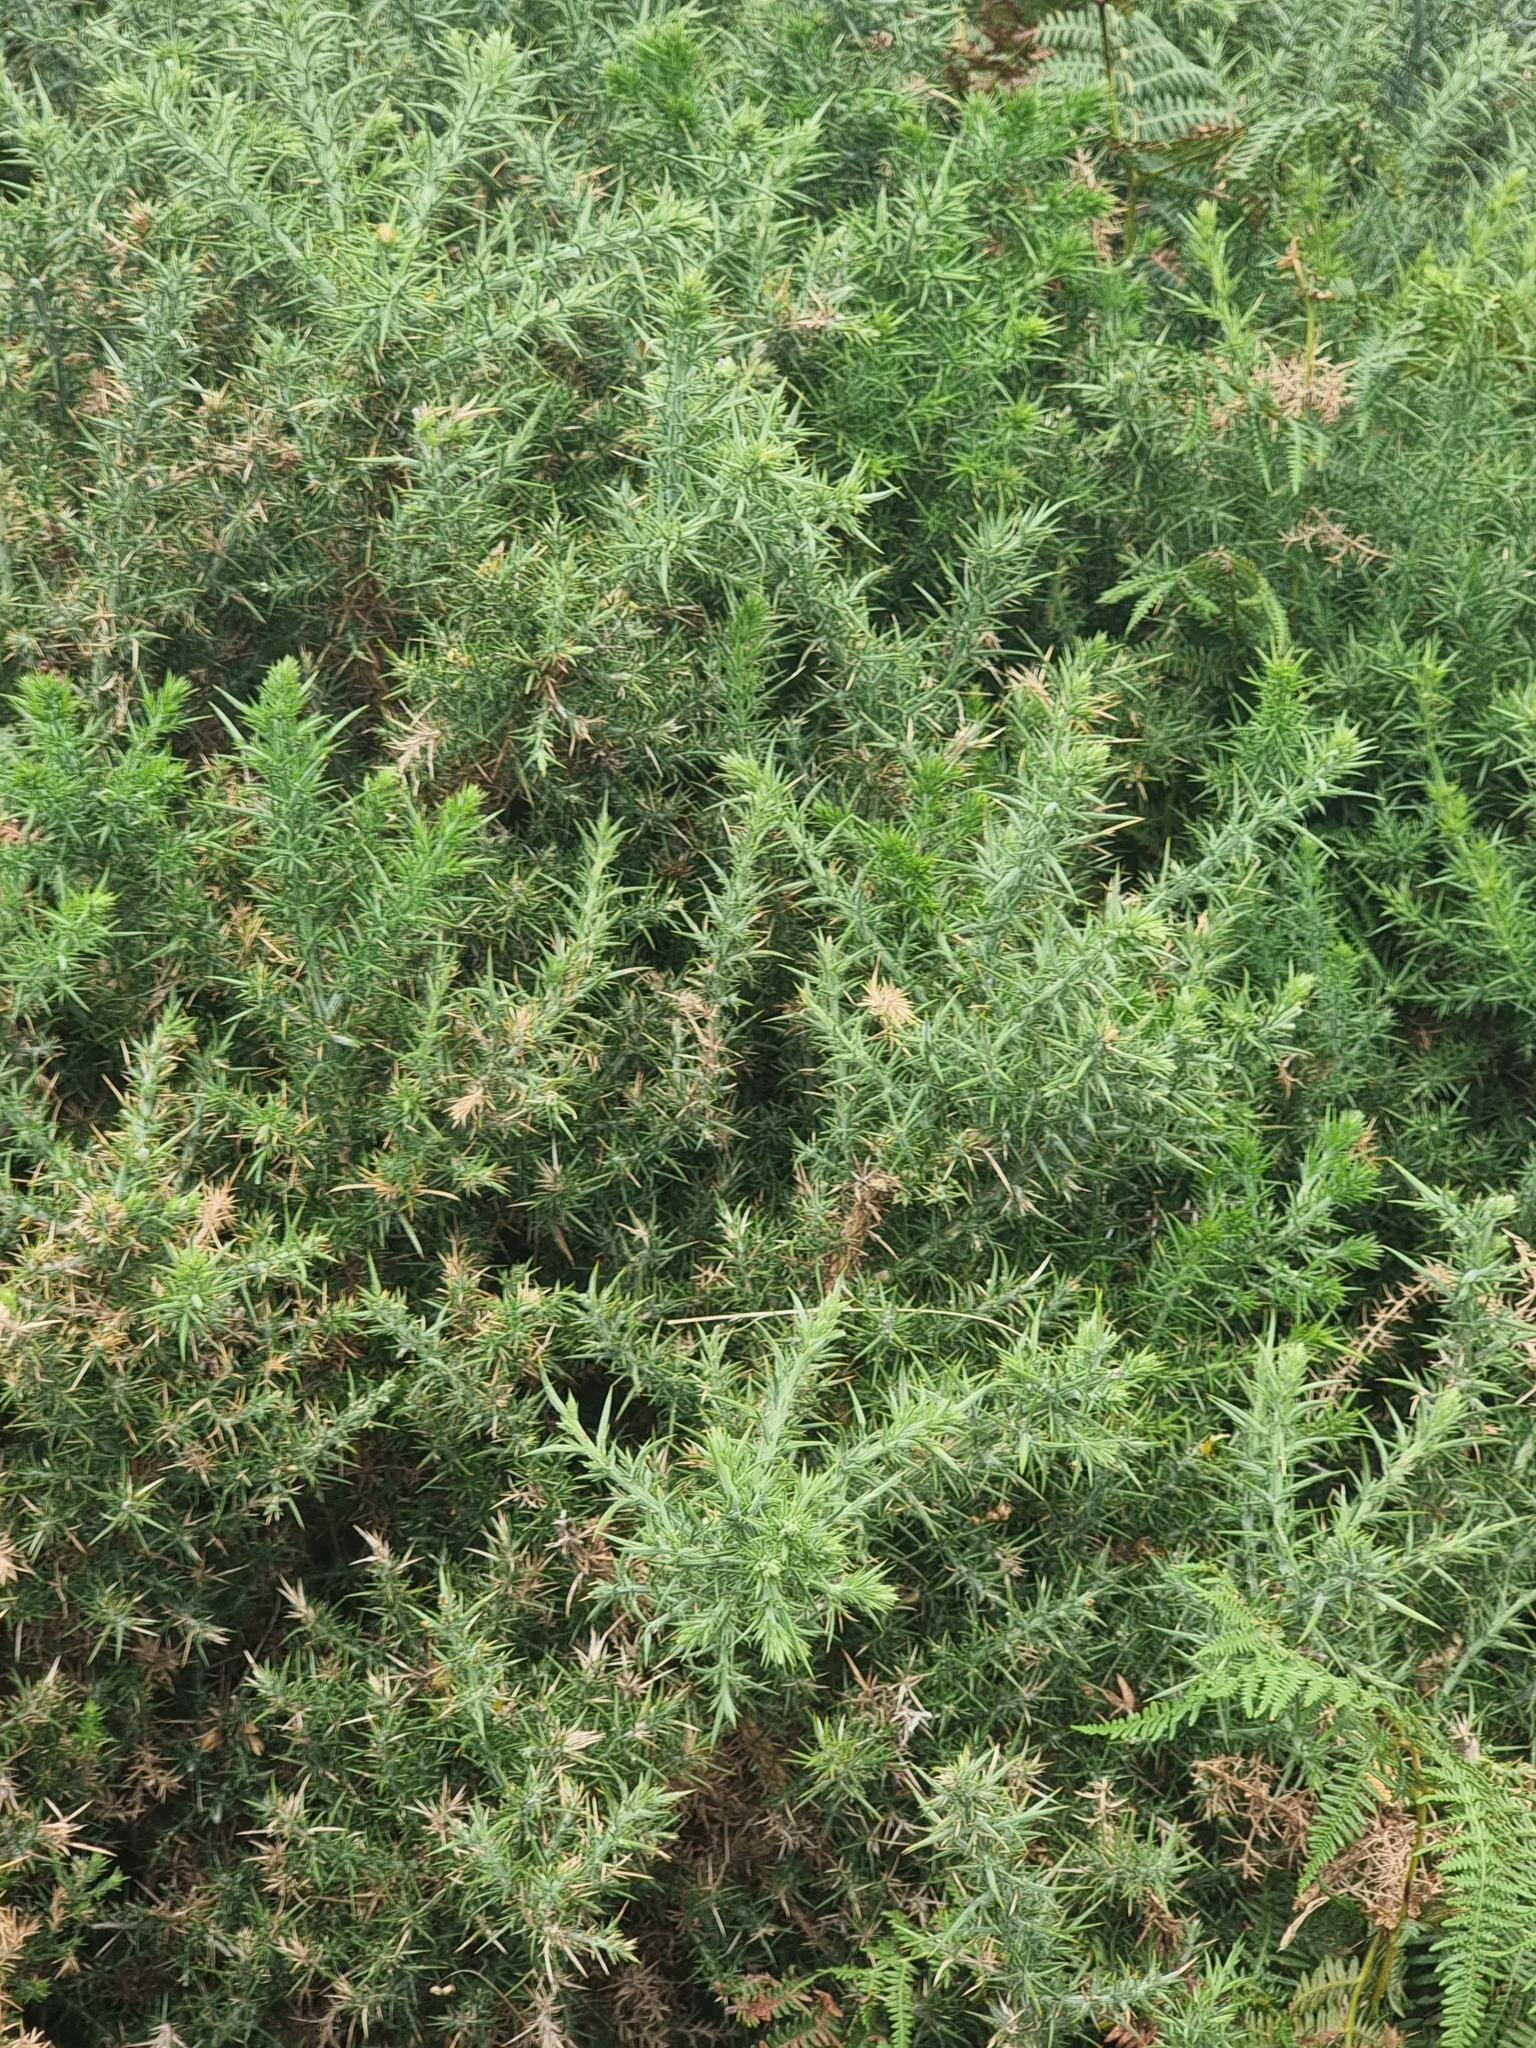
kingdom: Plantae
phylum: Tracheophyta
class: Magnoliopsida
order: Fabales
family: Fabaceae
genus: Ulex
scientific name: Ulex europaeus
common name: Common gorse
